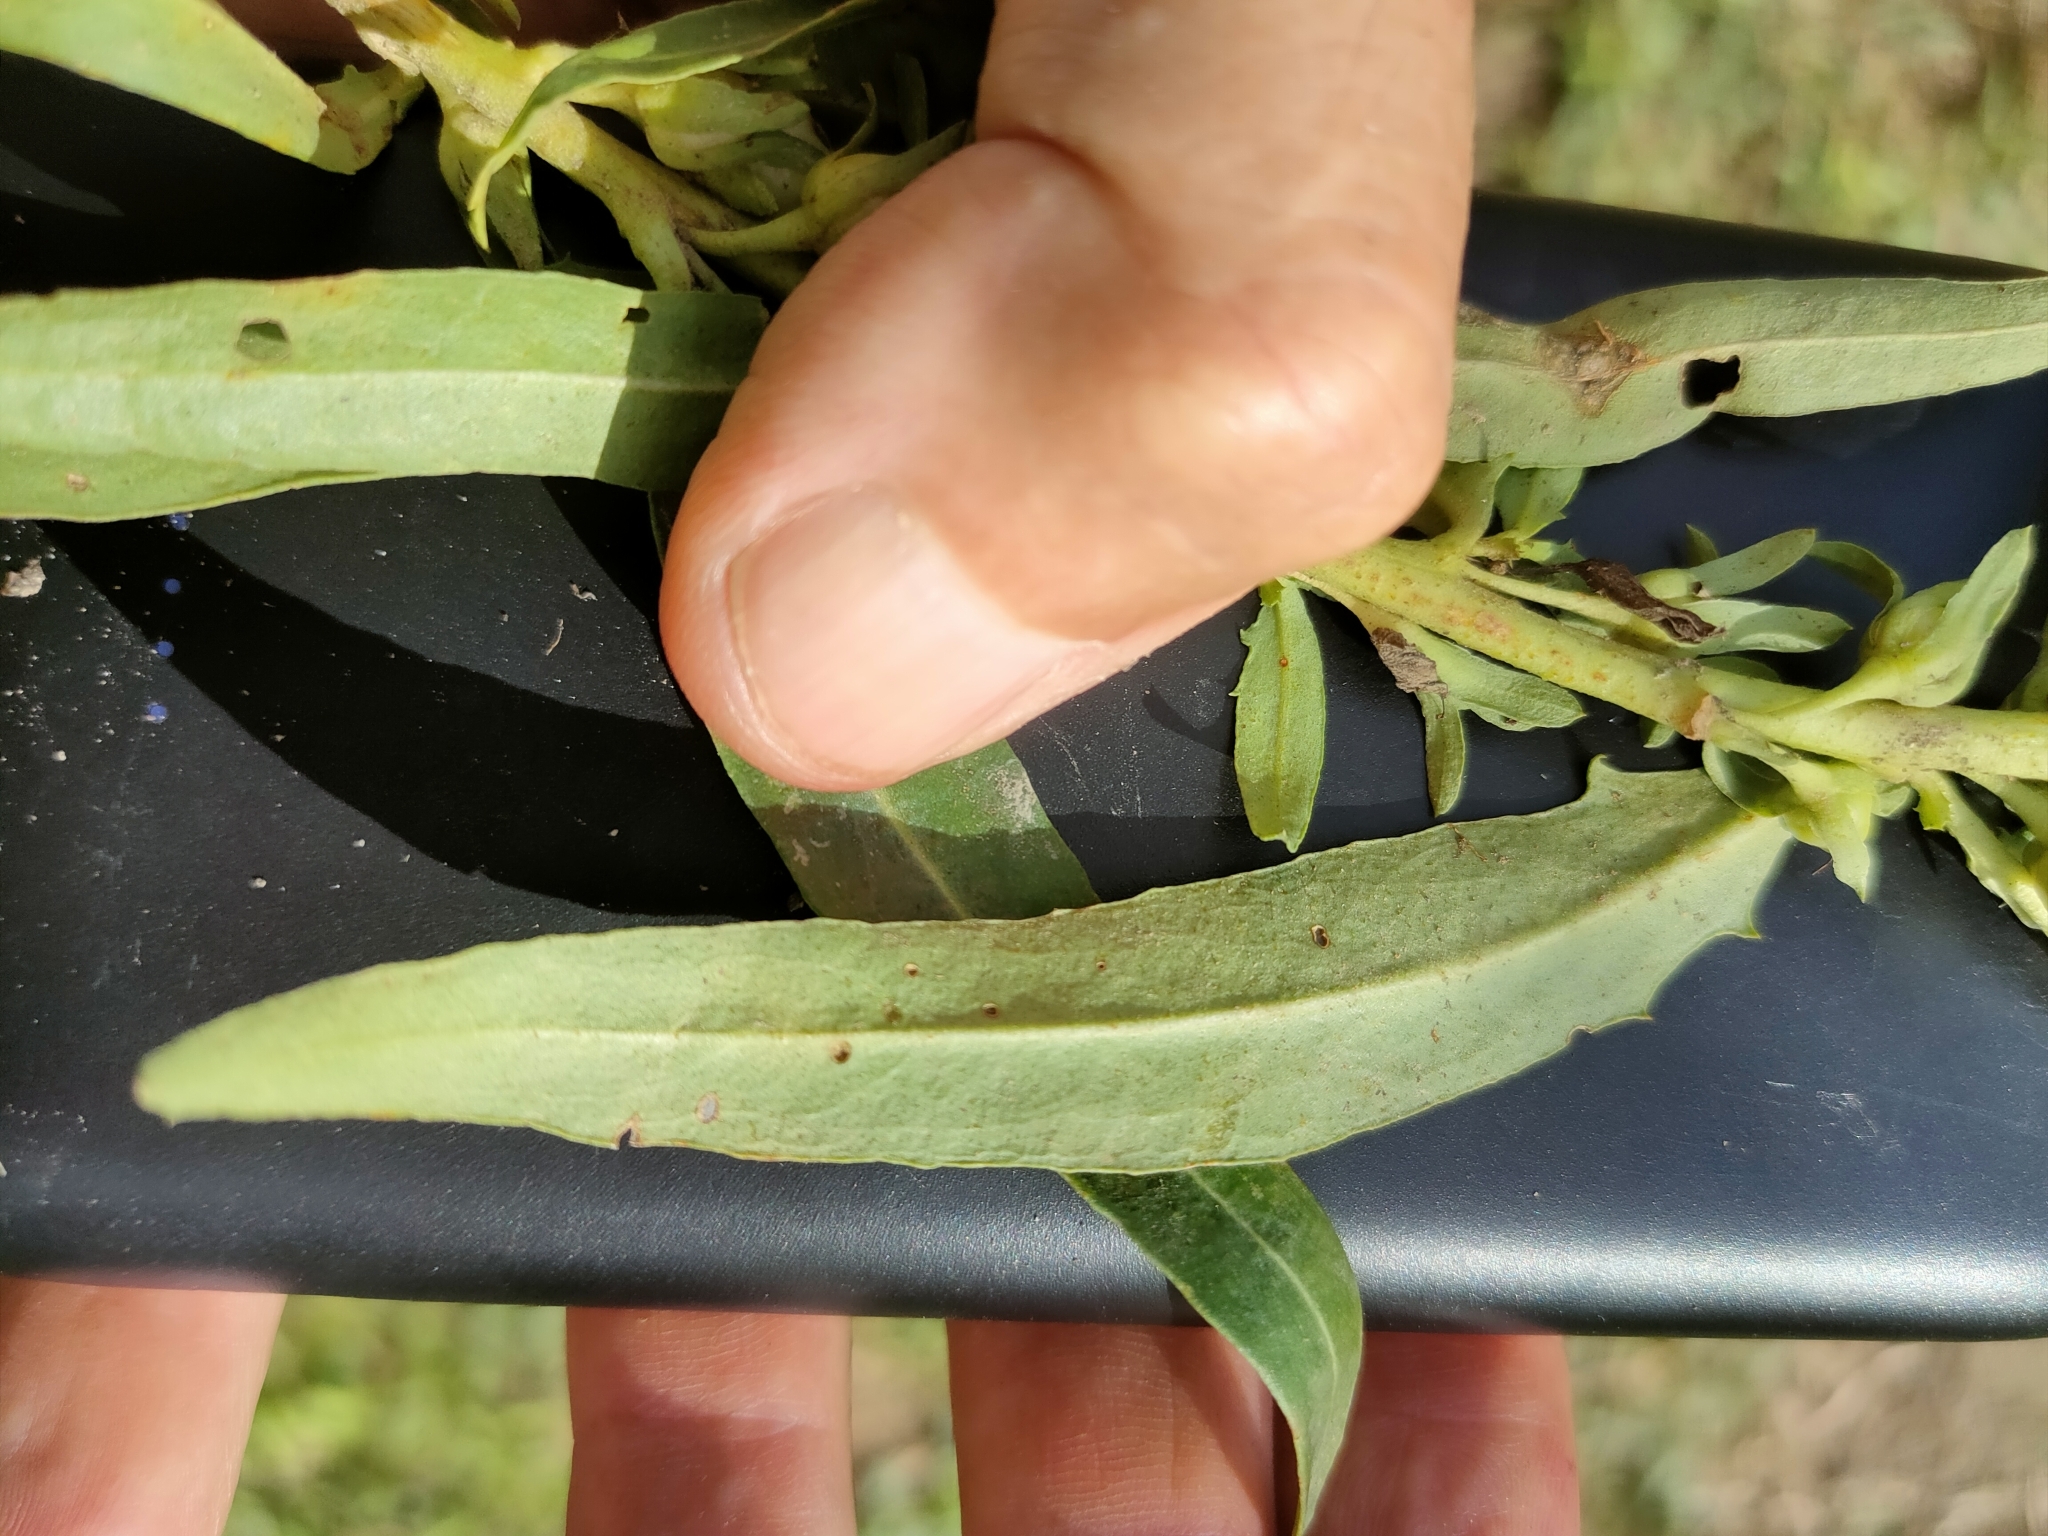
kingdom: Plantae
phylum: Tracheophyta
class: Magnoliopsida
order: Lamiales
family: Scrophulariaceae
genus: Eremophila
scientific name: Eremophila debilis
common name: Winter-apple
